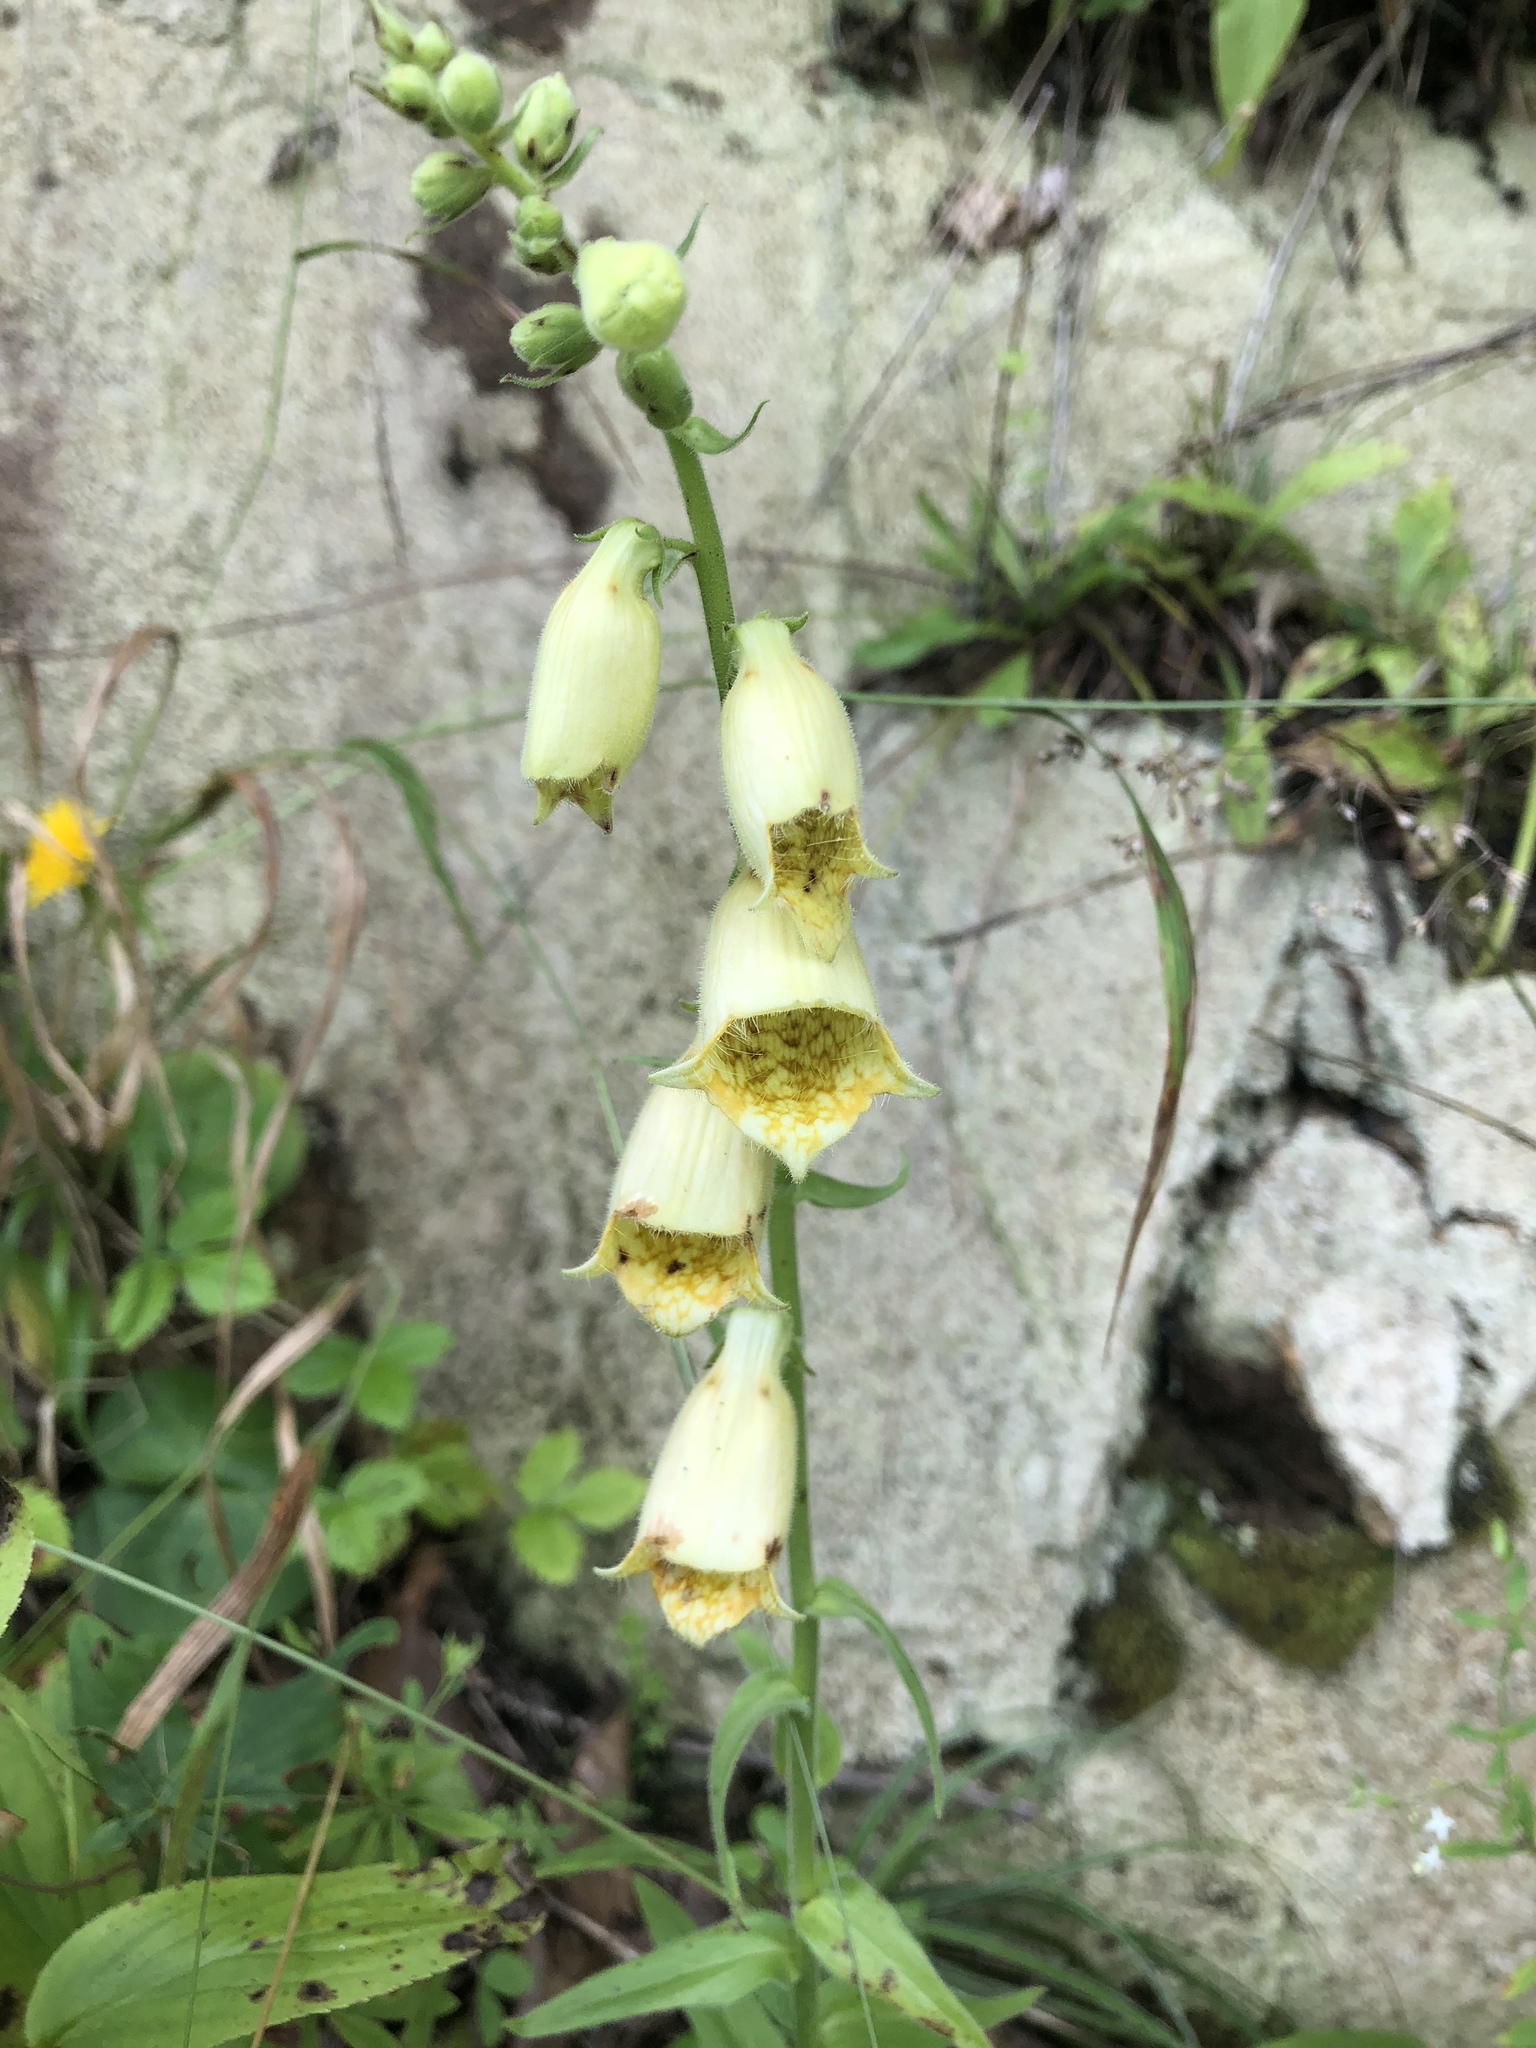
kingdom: Plantae
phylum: Tracheophyta
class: Magnoliopsida
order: Lamiales
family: Plantaginaceae
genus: Digitalis
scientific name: Digitalis grandiflora
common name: Yellow foxglove
